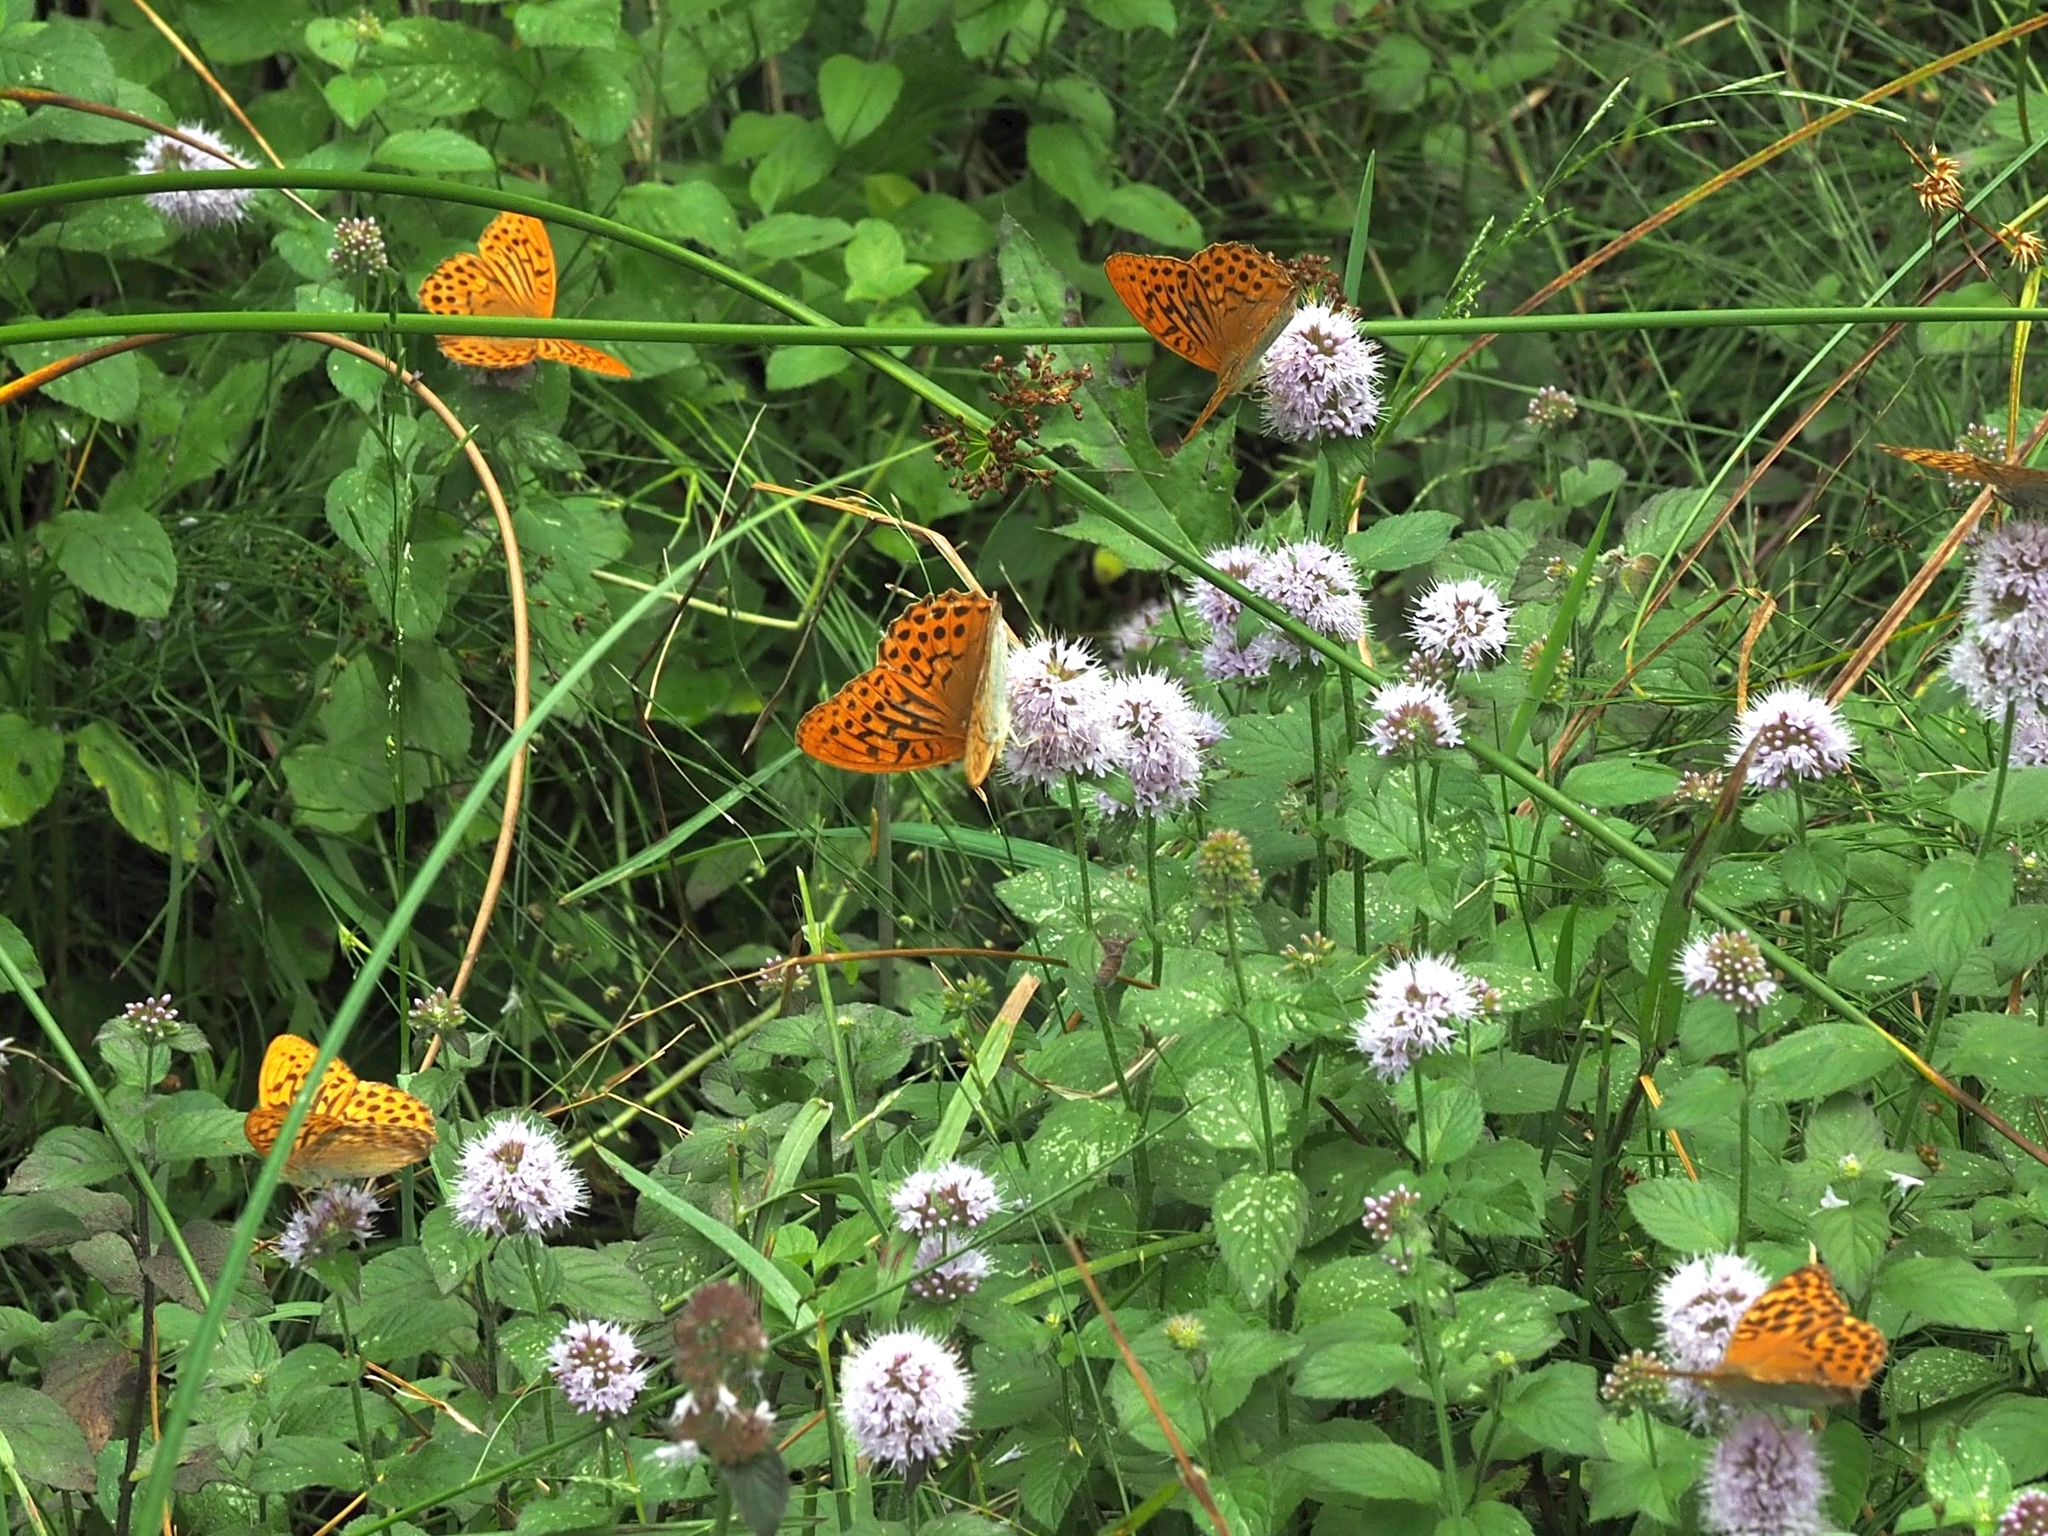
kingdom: Animalia
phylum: Arthropoda
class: Insecta
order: Lepidoptera
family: Nymphalidae
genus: Argynnis
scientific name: Argynnis paphia
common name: Silver-washed fritillary
